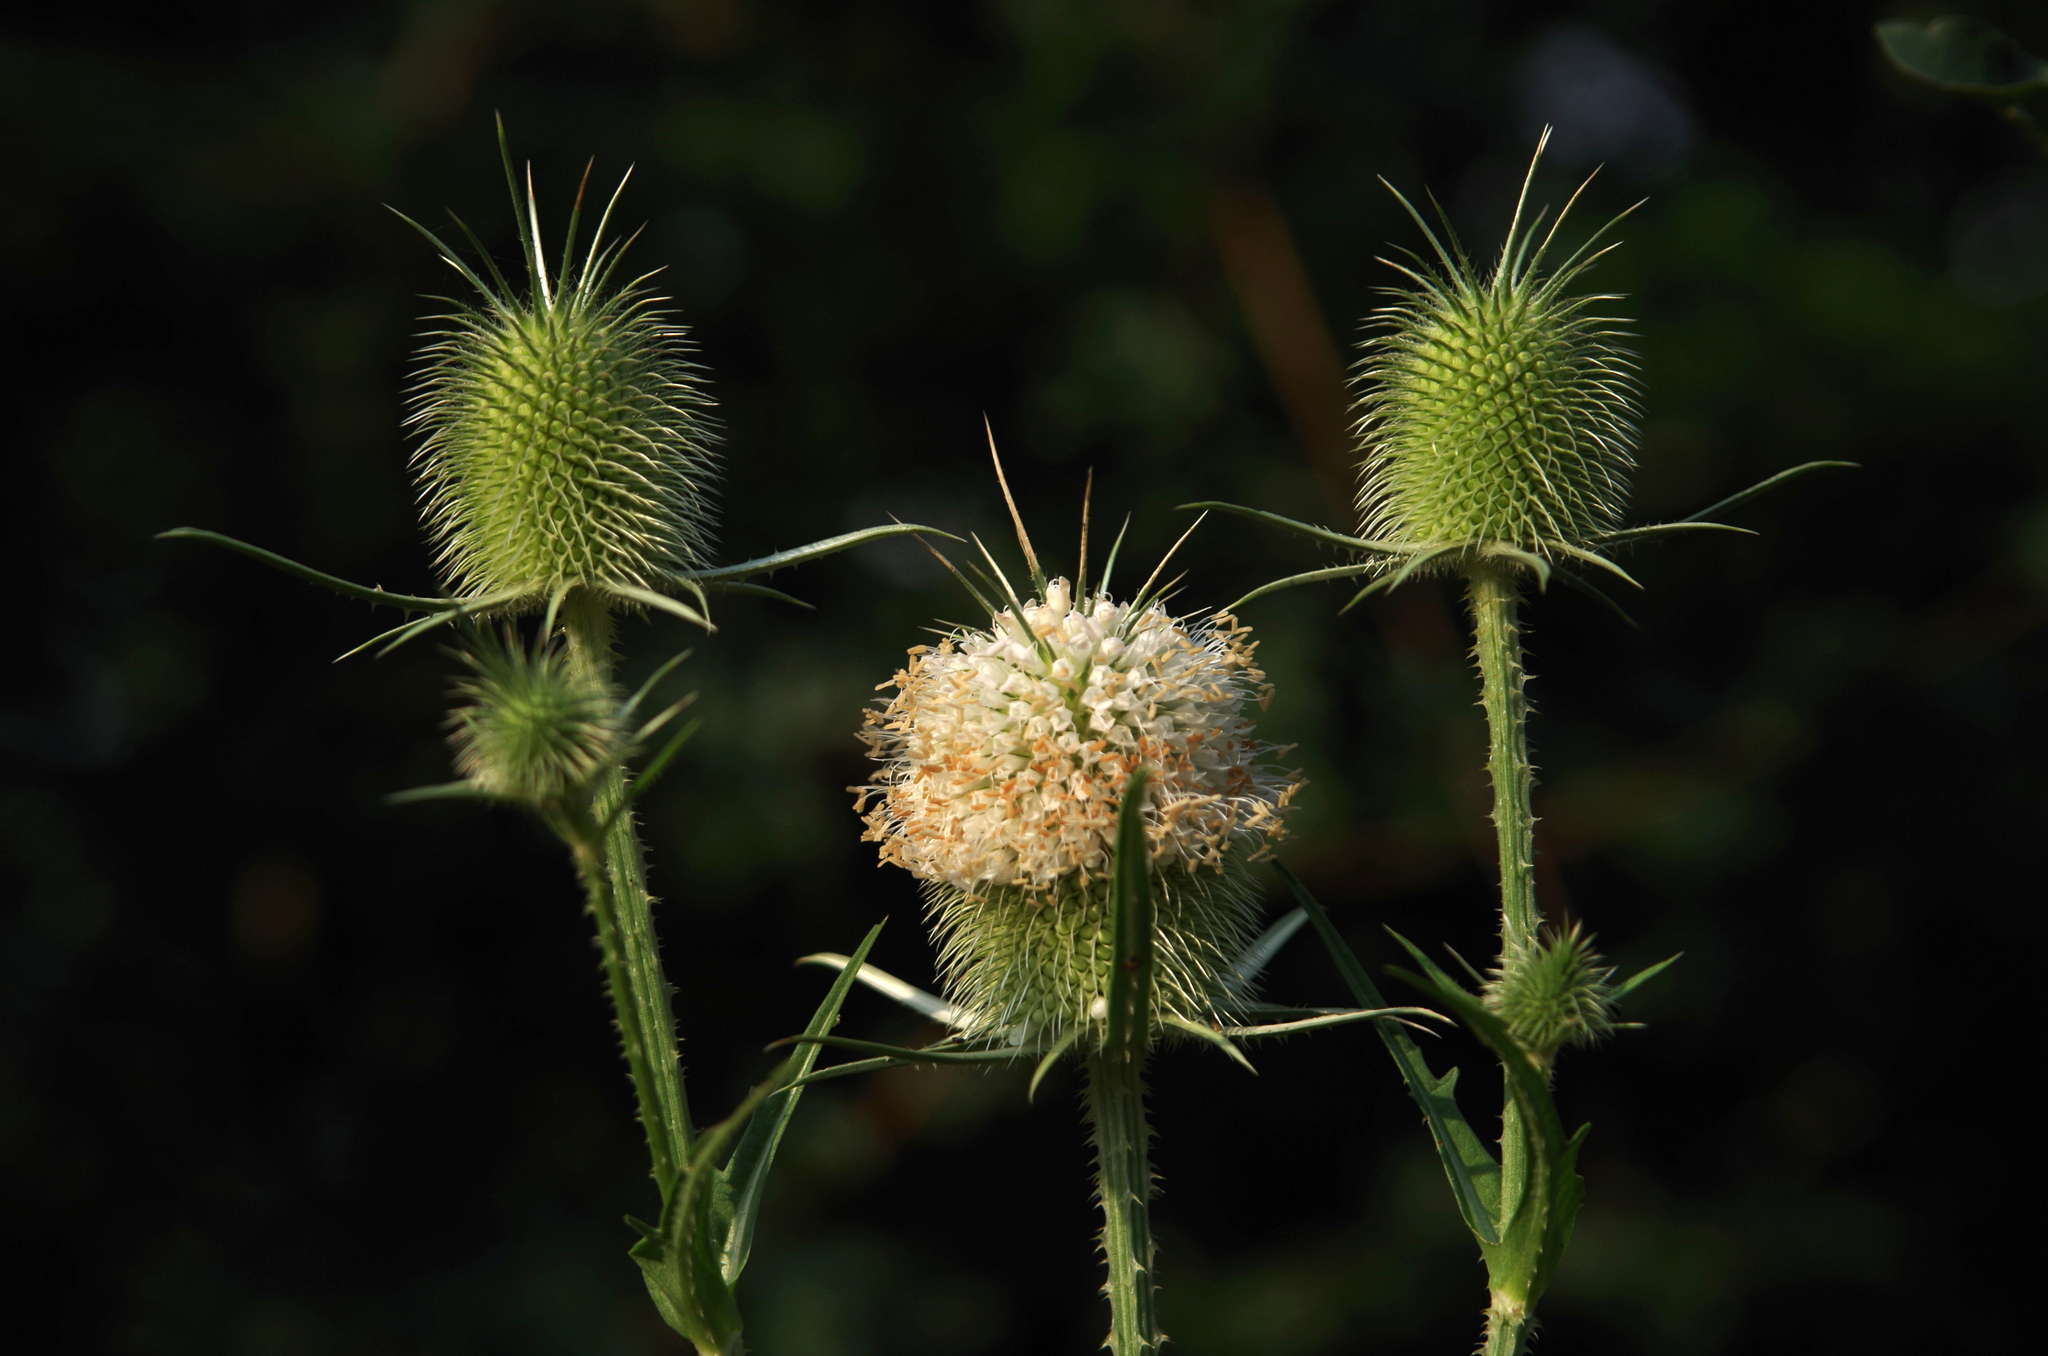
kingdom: Plantae
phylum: Tracheophyta
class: Magnoliopsida
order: Dipsacales
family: Caprifoliaceae
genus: Dipsacus
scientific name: Dipsacus laciniatus
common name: Cut-leaved teasel
